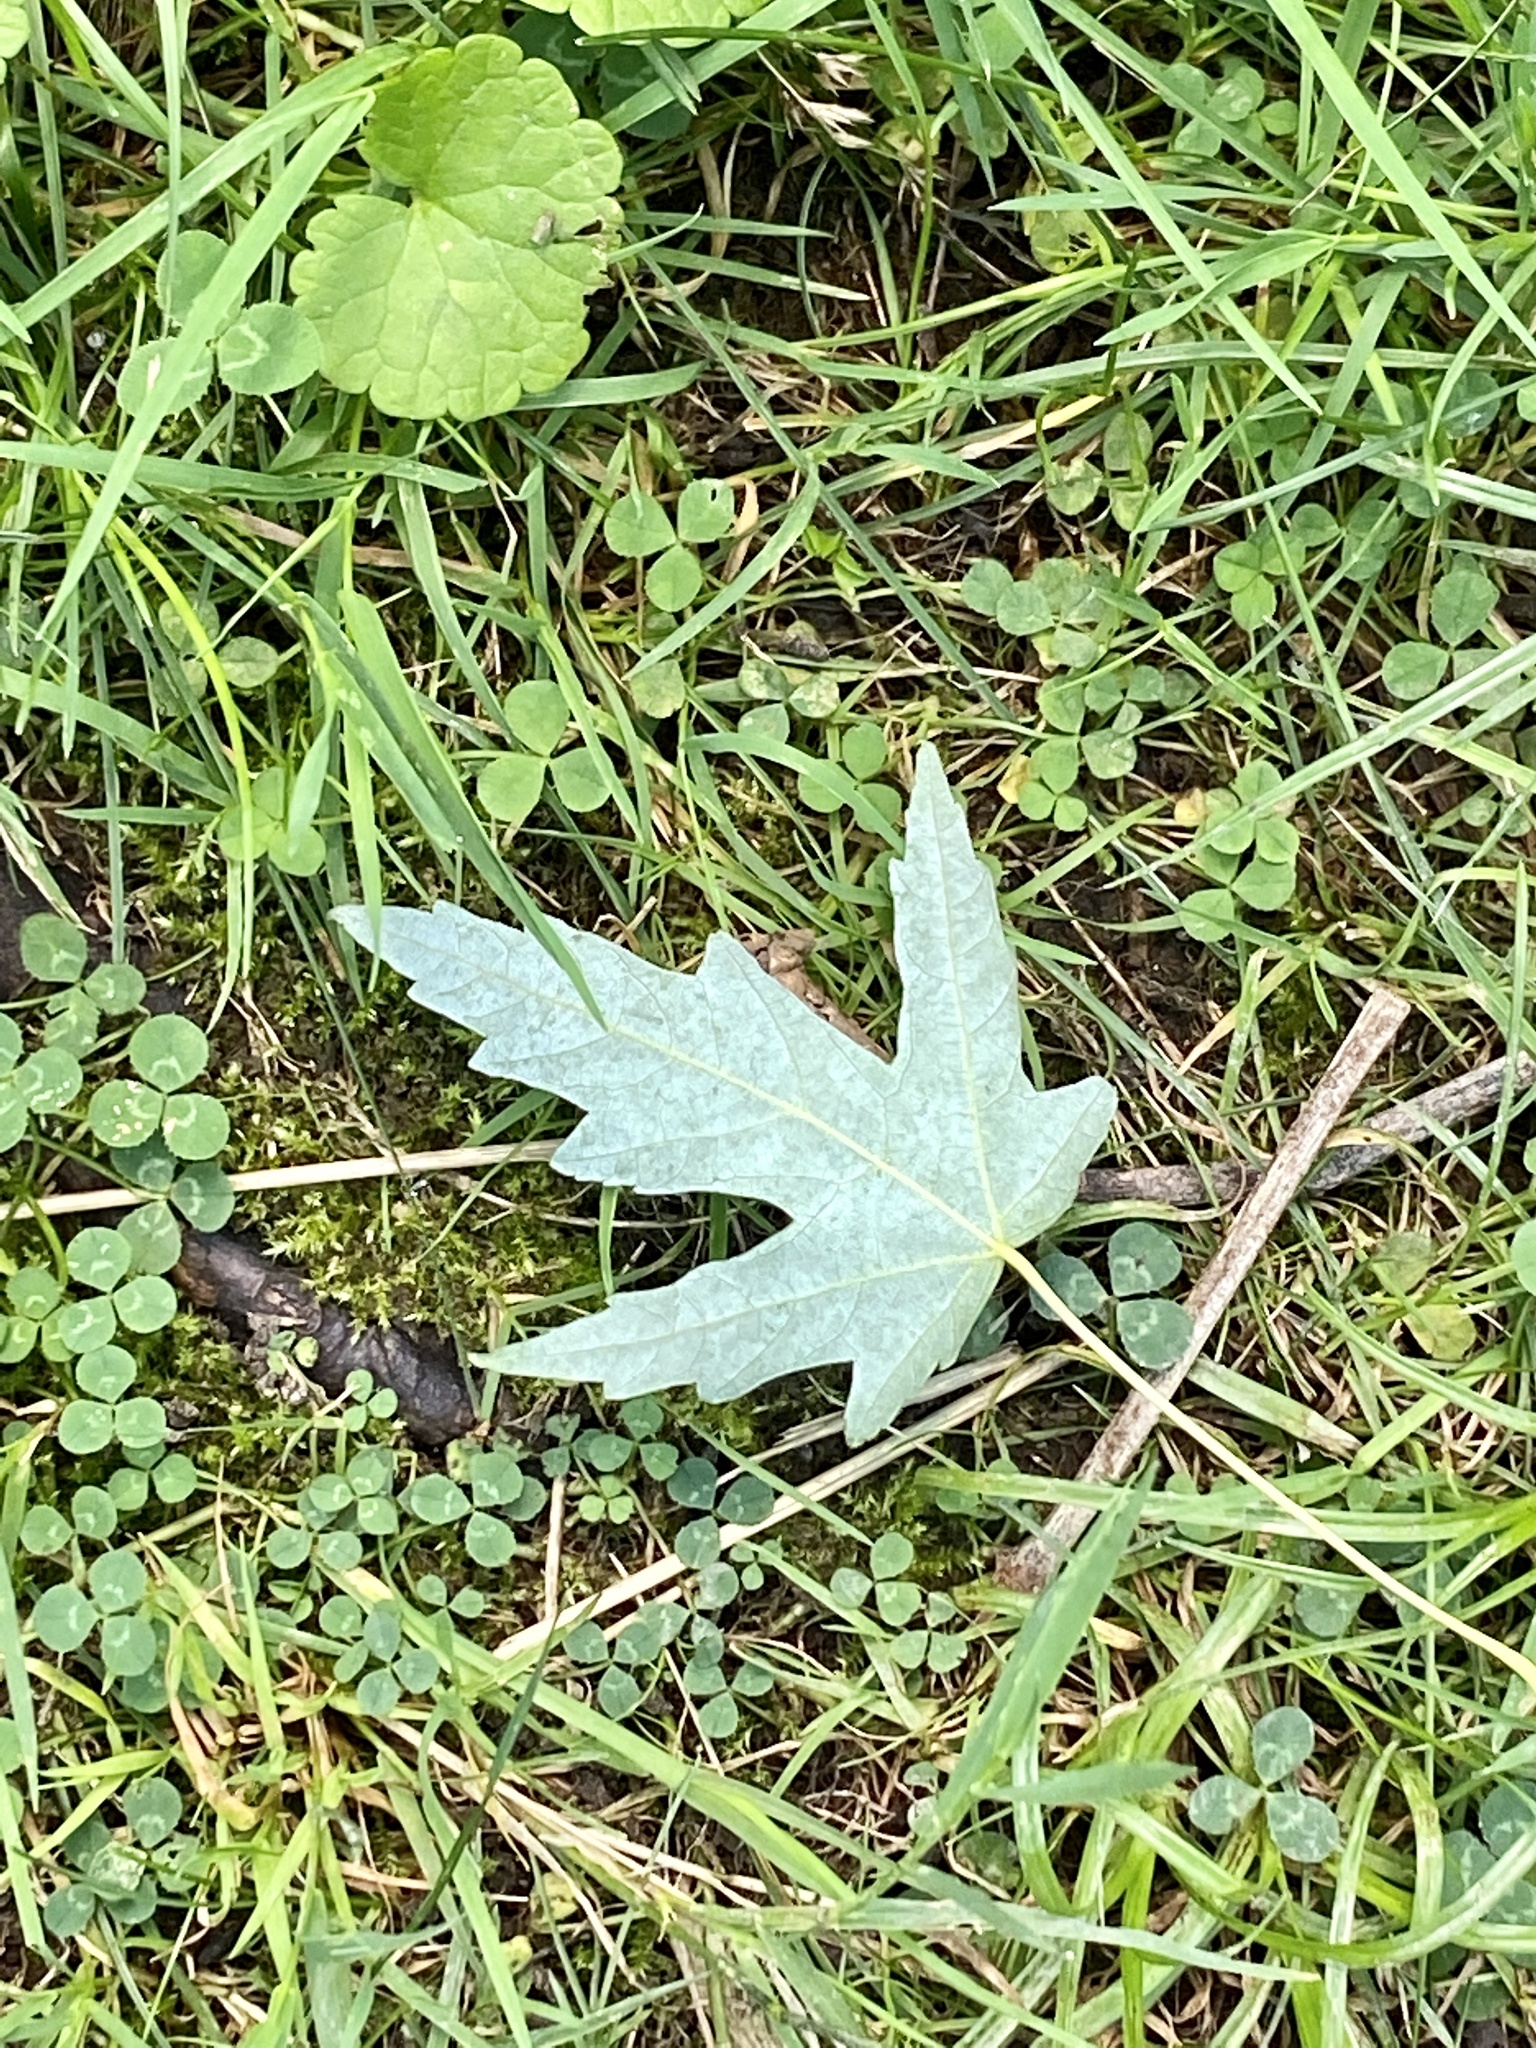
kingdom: Plantae
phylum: Tracheophyta
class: Magnoliopsida
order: Sapindales
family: Sapindaceae
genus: Acer
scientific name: Acer saccharinum
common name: Silver maple
